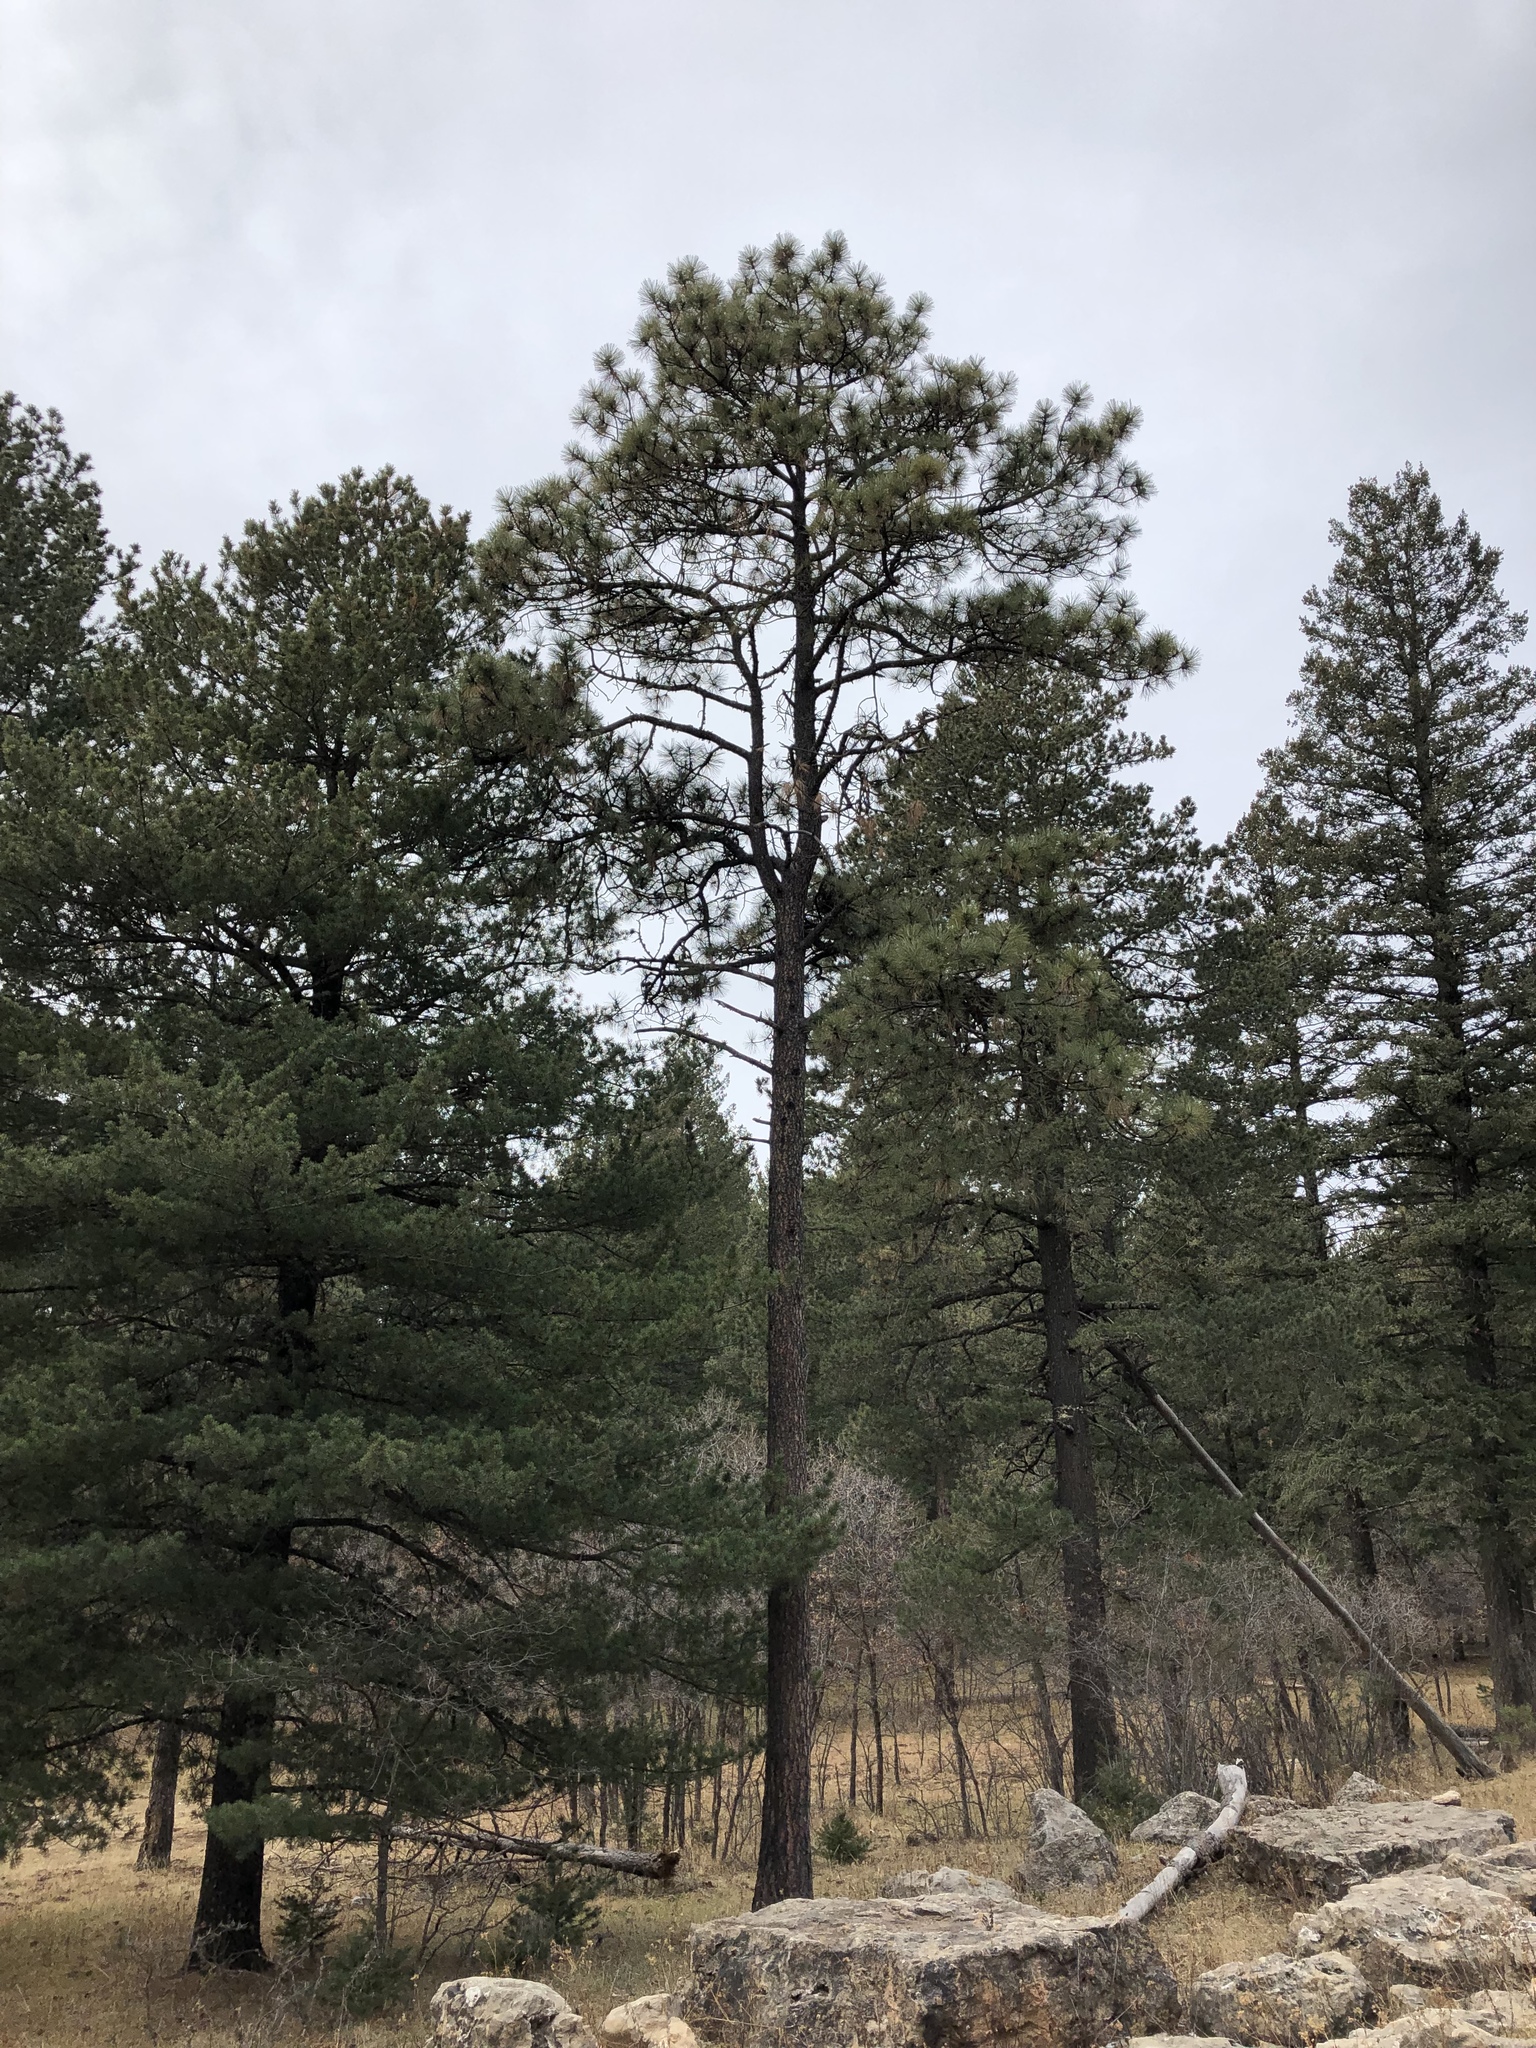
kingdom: Plantae
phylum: Tracheophyta
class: Pinopsida
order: Pinales
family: Pinaceae
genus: Pinus
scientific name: Pinus ponderosa
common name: Western yellow-pine
